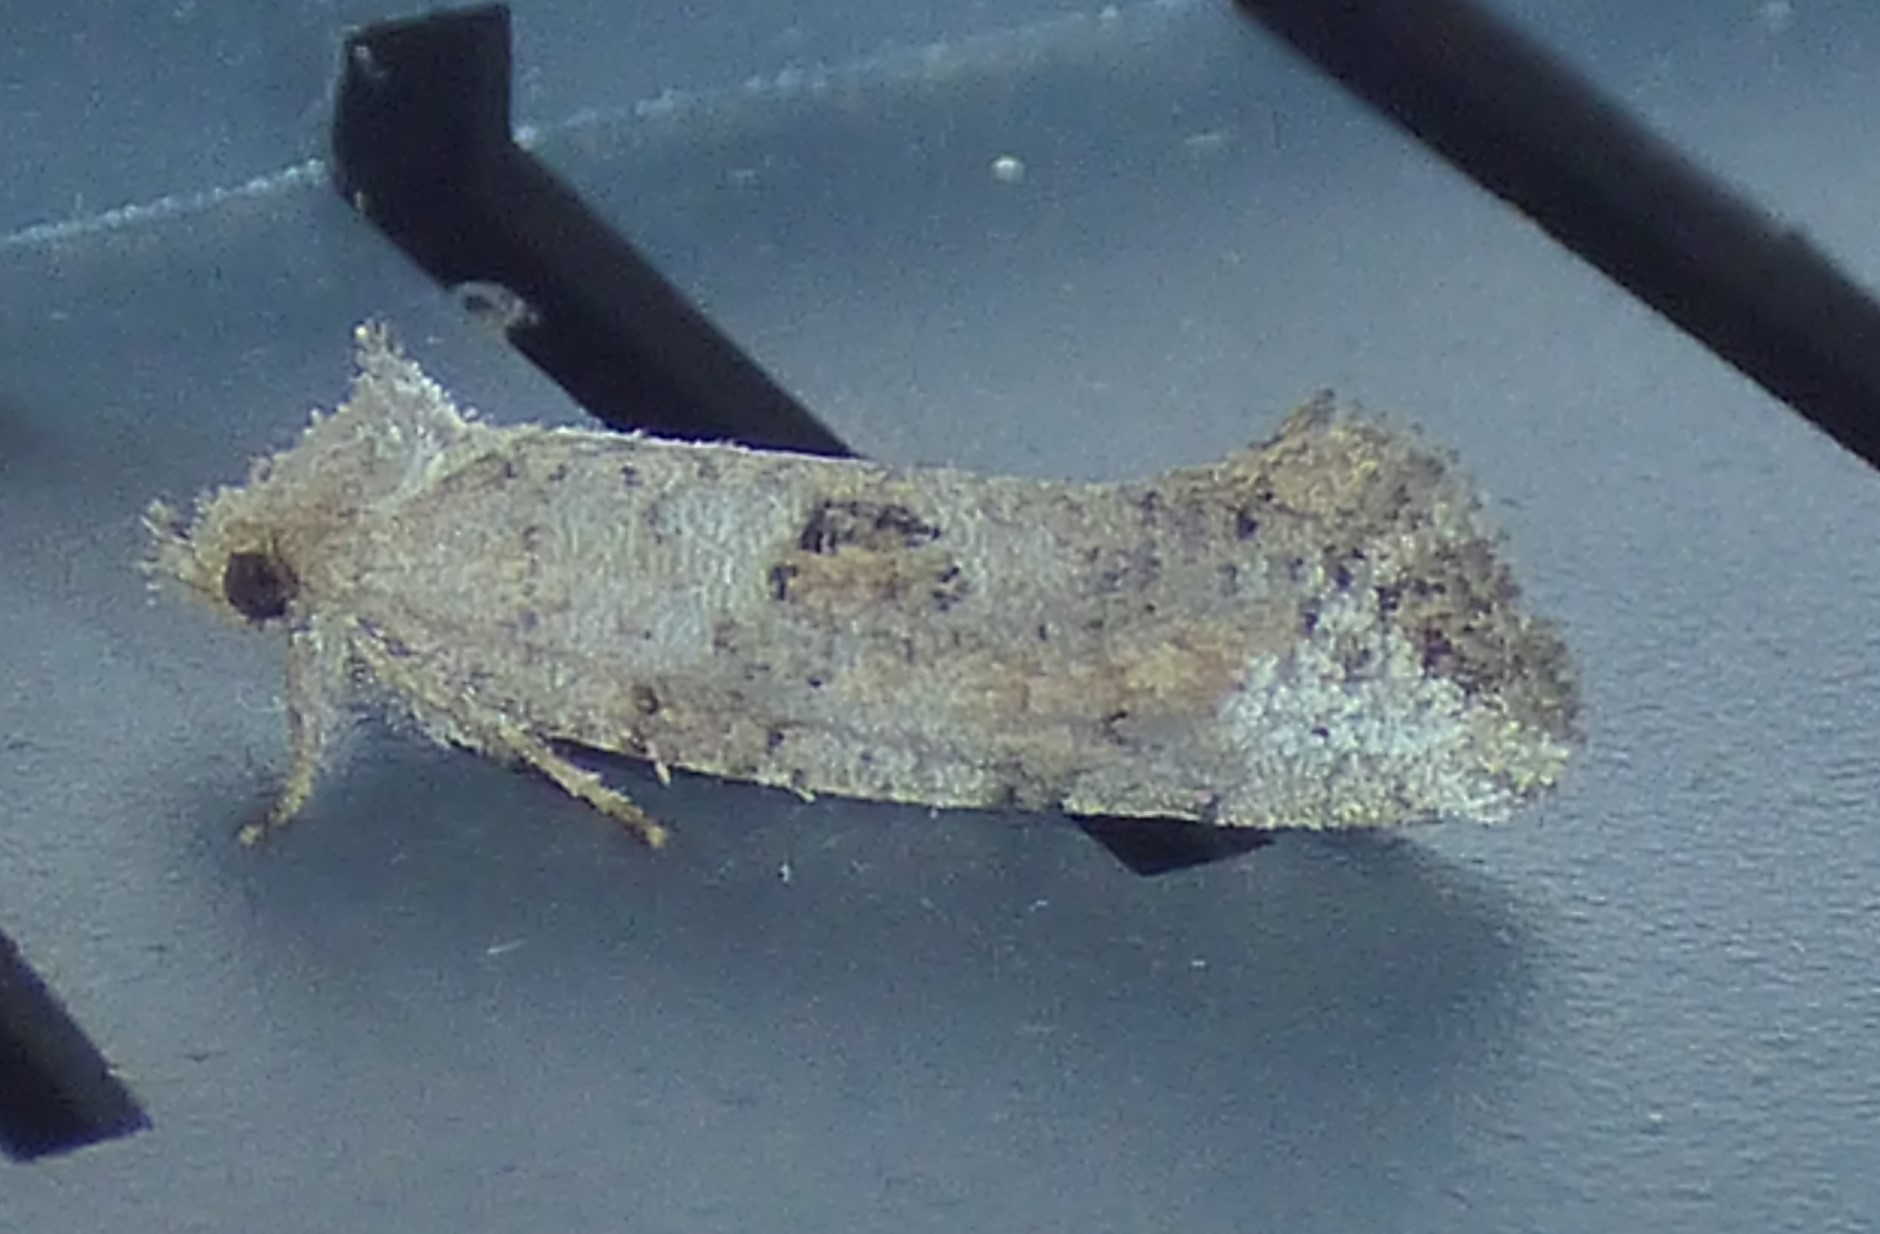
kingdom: Animalia
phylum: Arthropoda
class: Insecta
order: Lepidoptera
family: Tineidae
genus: Acrolophus
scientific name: Acrolophus texanella
